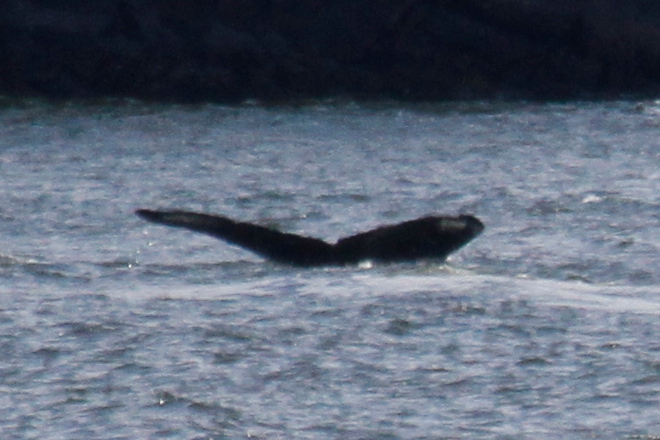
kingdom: Animalia
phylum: Chordata
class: Mammalia
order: Cetacea
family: Balaenopteridae
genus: Megaptera
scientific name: Megaptera novaeangliae
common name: Humpback whale
